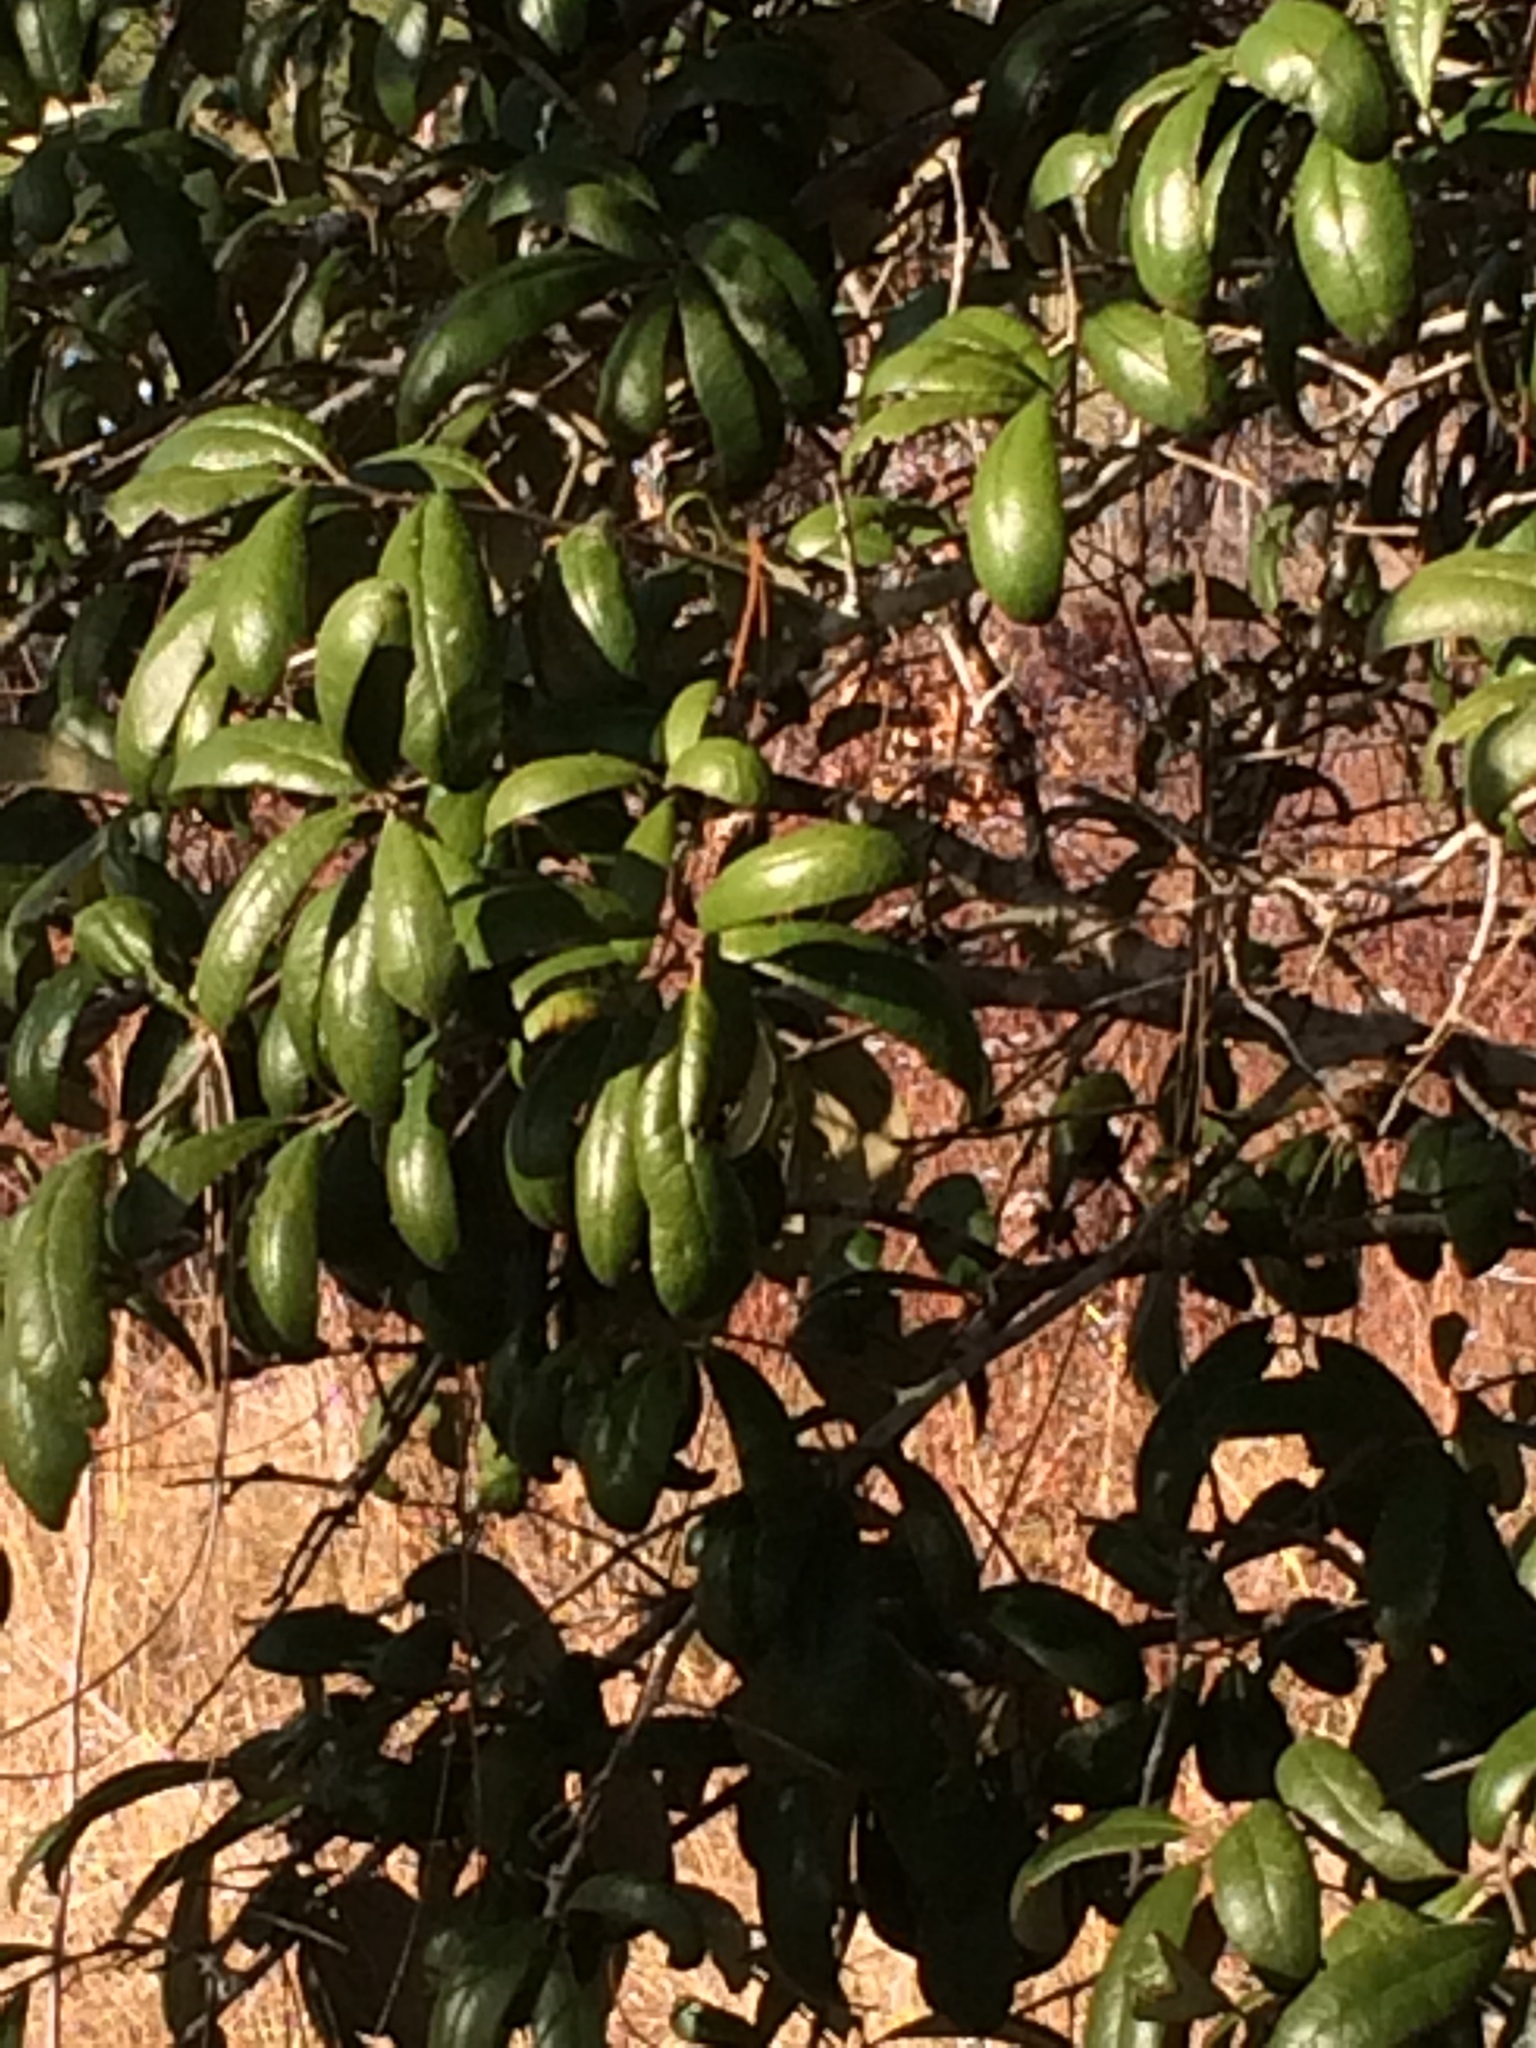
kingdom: Plantae
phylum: Tracheophyta
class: Magnoliopsida
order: Fagales
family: Fagaceae
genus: Quercus
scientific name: Quercus geminata
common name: Sand live oak
